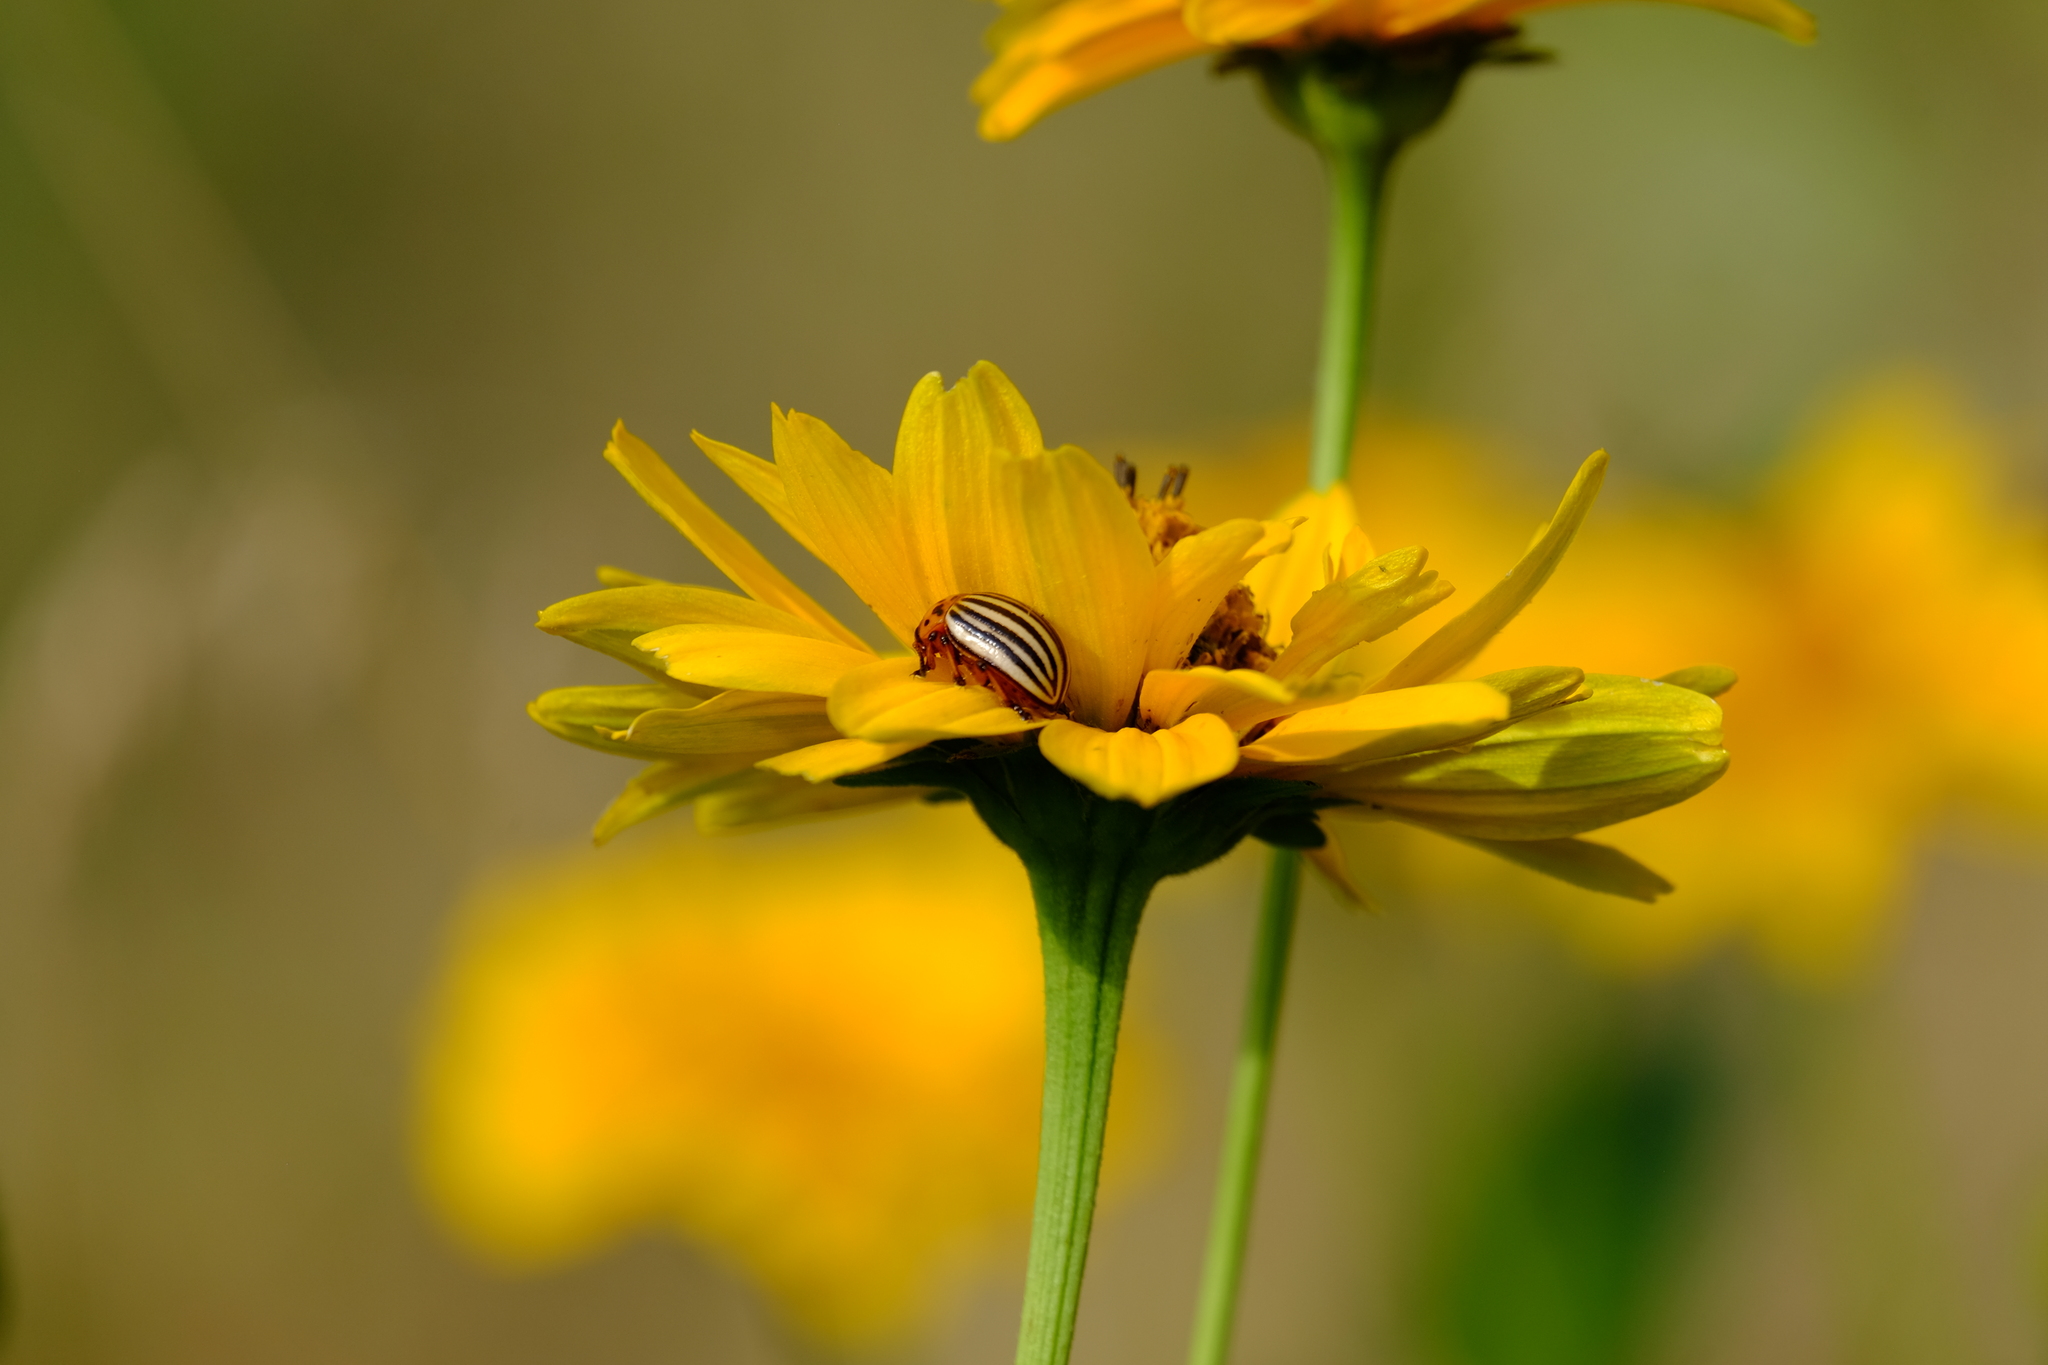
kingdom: Animalia
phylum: Arthropoda
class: Insecta
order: Coleoptera
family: Chrysomelidae
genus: Leptinotarsa
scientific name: Leptinotarsa decemlineata
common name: Colorado potato beetle
